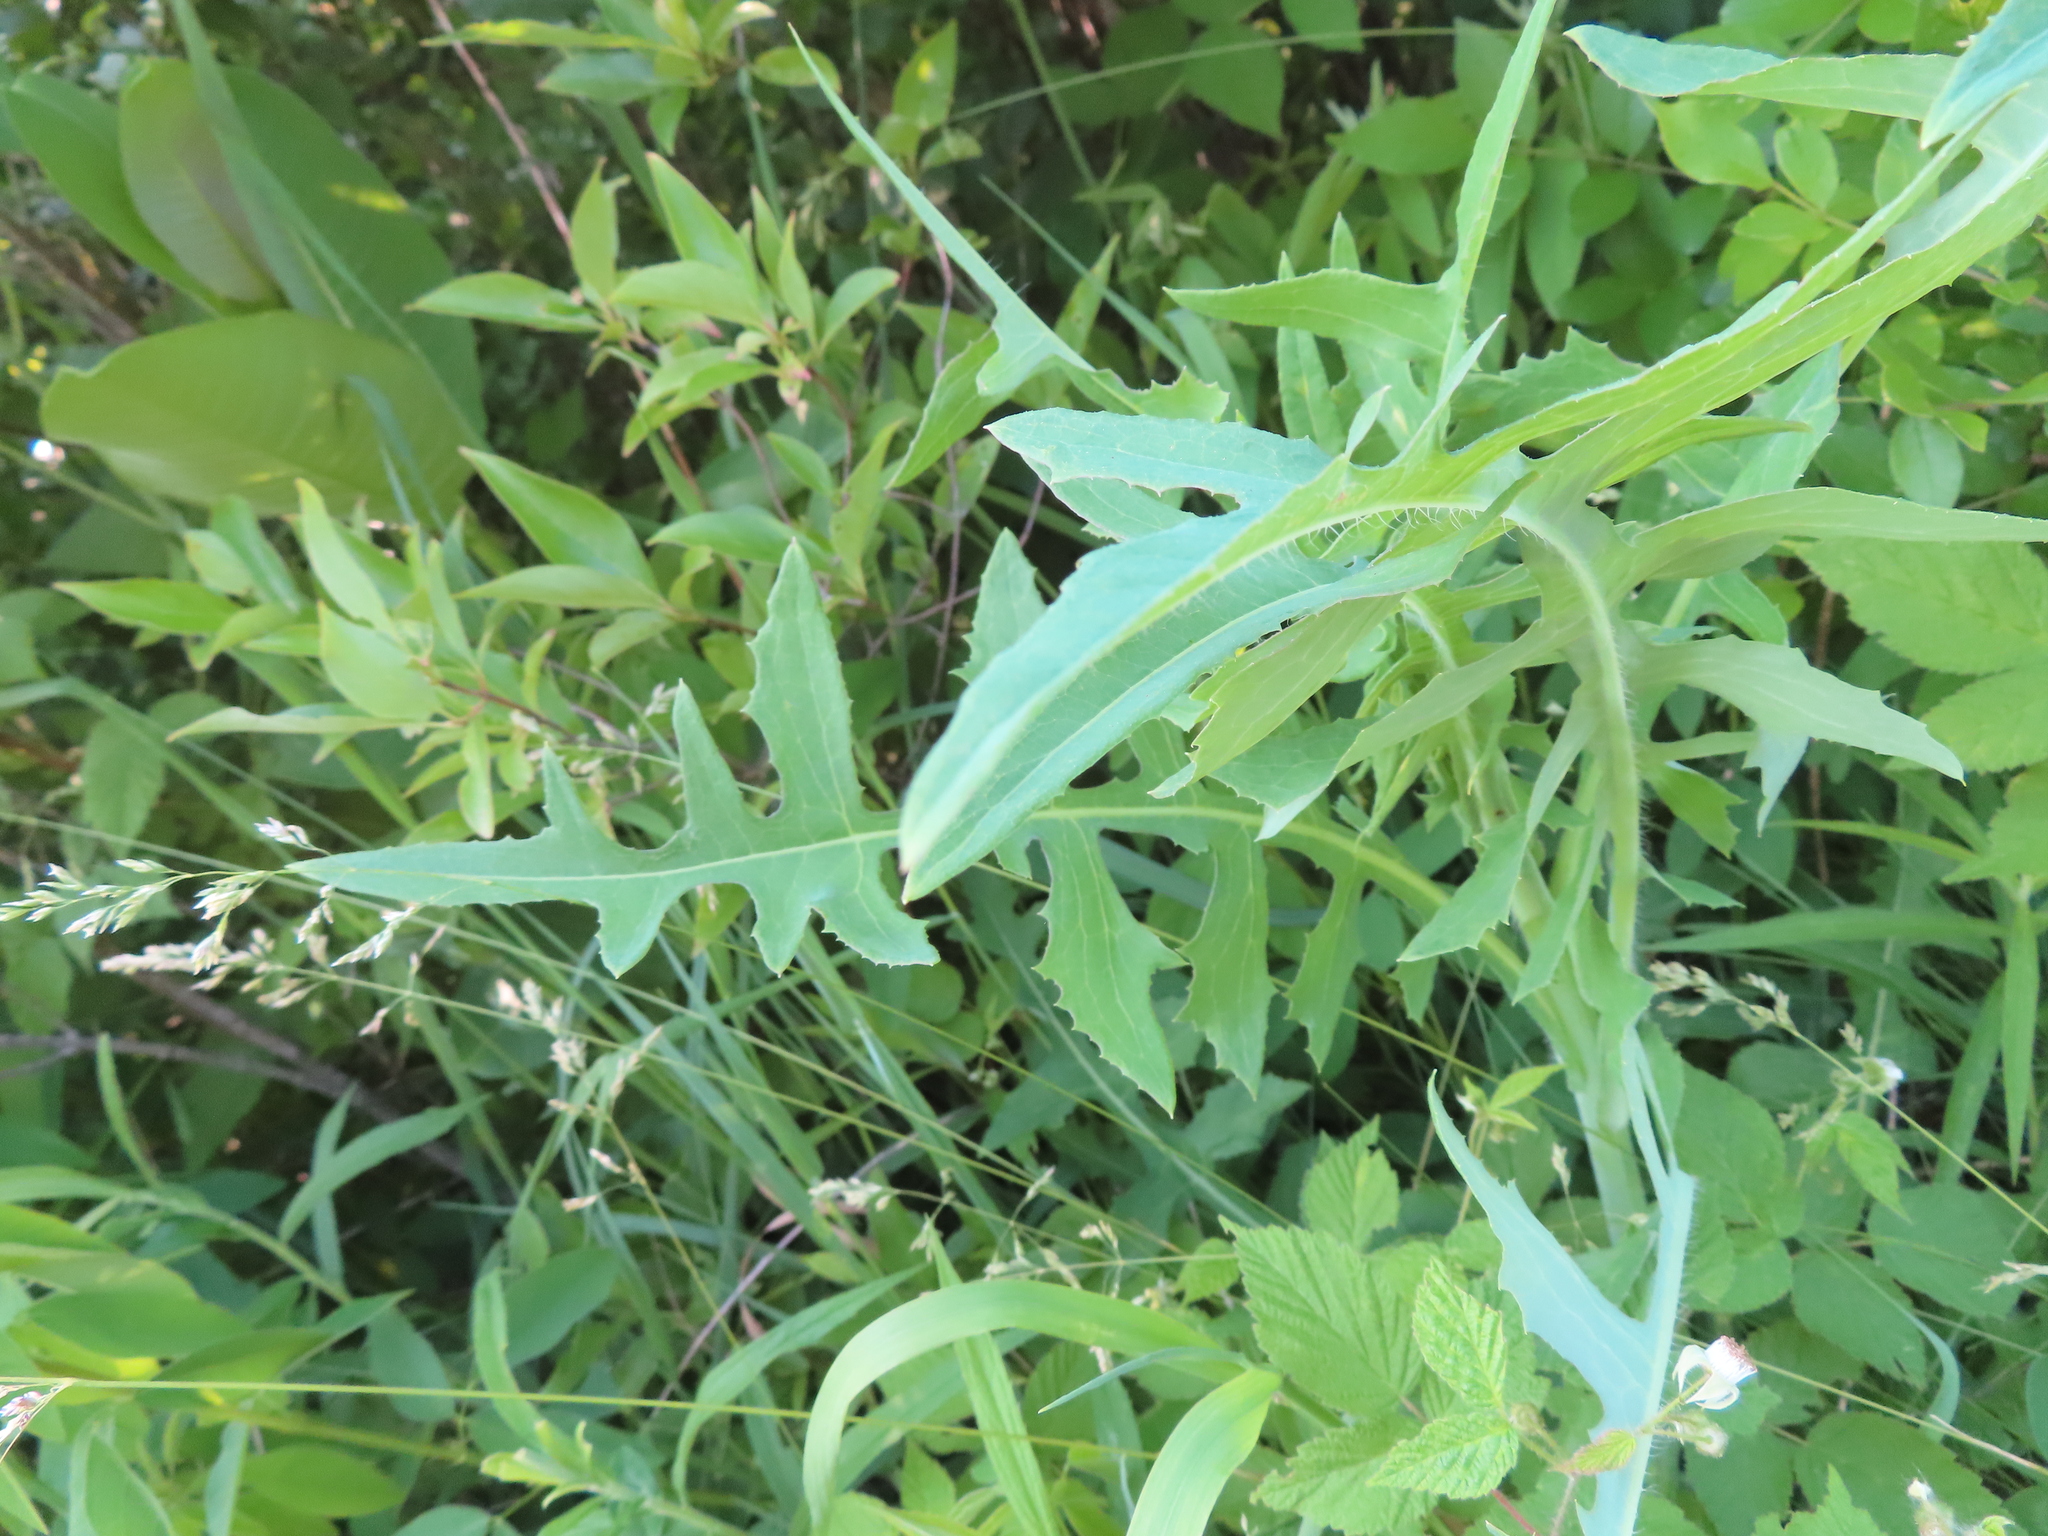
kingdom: Plantae
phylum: Tracheophyta
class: Magnoliopsida
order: Asterales
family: Asteraceae
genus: Lactuca
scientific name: Lactuca canadensis
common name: Canada lettuce
